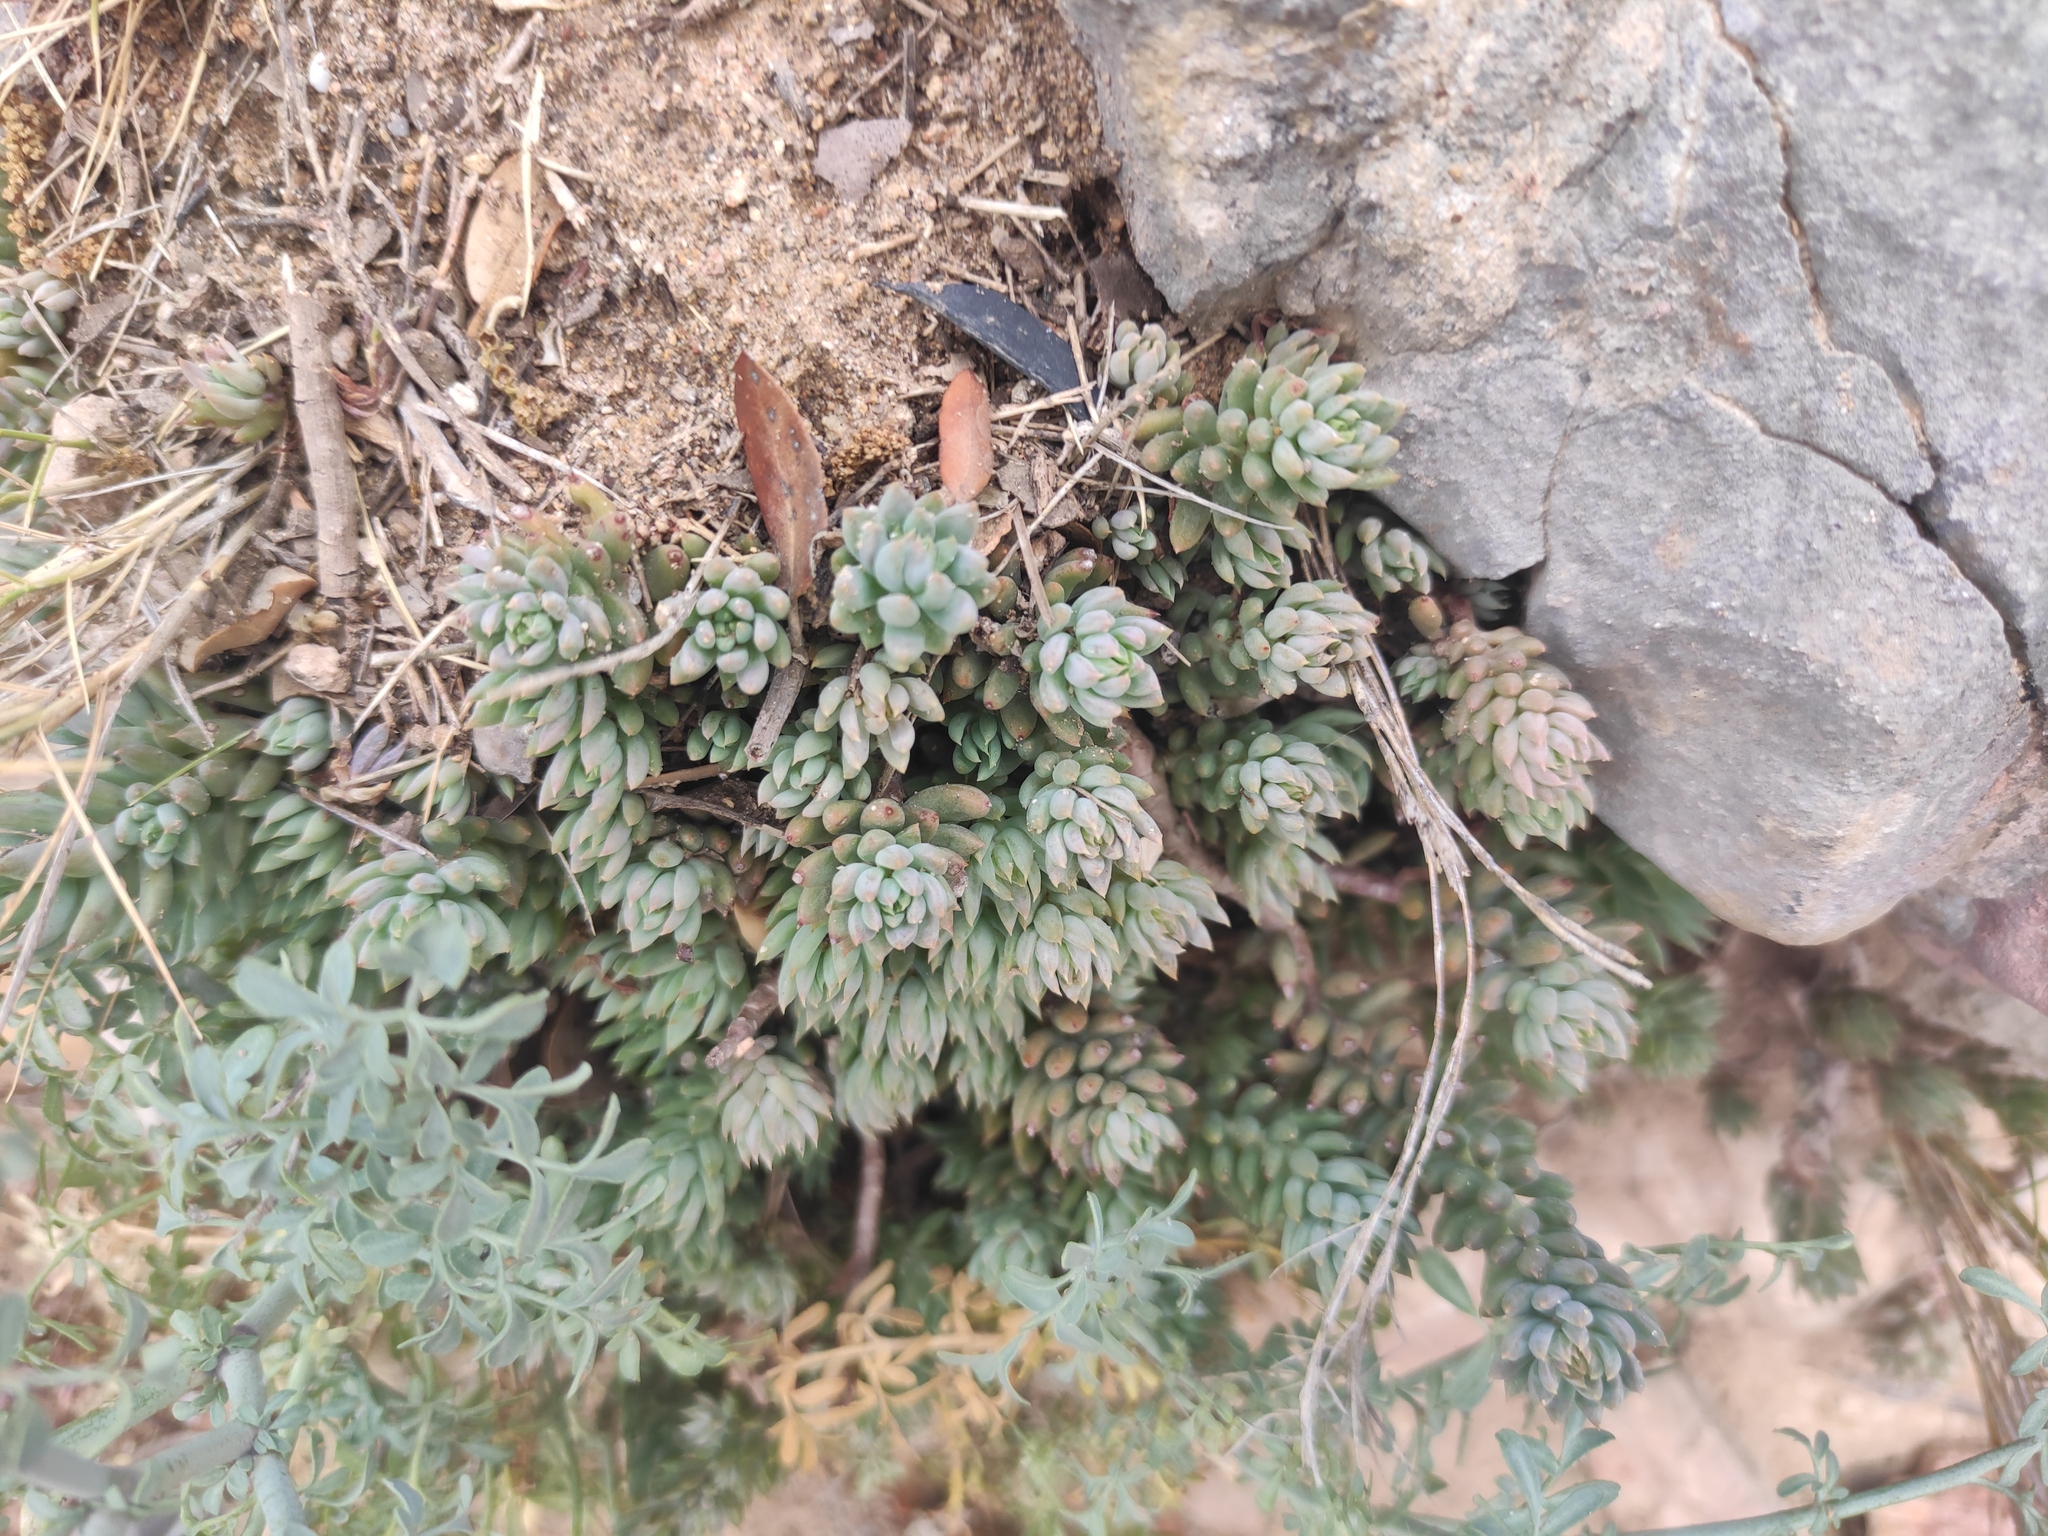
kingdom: Plantae
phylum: Tracheophyta
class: Magnoliopsida
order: Saxifragales
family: Crassulaceae
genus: Petrosedum
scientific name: Petrosedum sediforme
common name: Pale stonecrop
